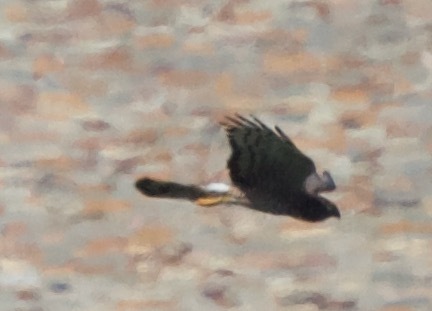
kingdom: Animalia
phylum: Chordata
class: Aves
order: Accipitriformes
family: Accipitridae
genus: Circus
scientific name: Circus cinereus
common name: Cinereous harrier
